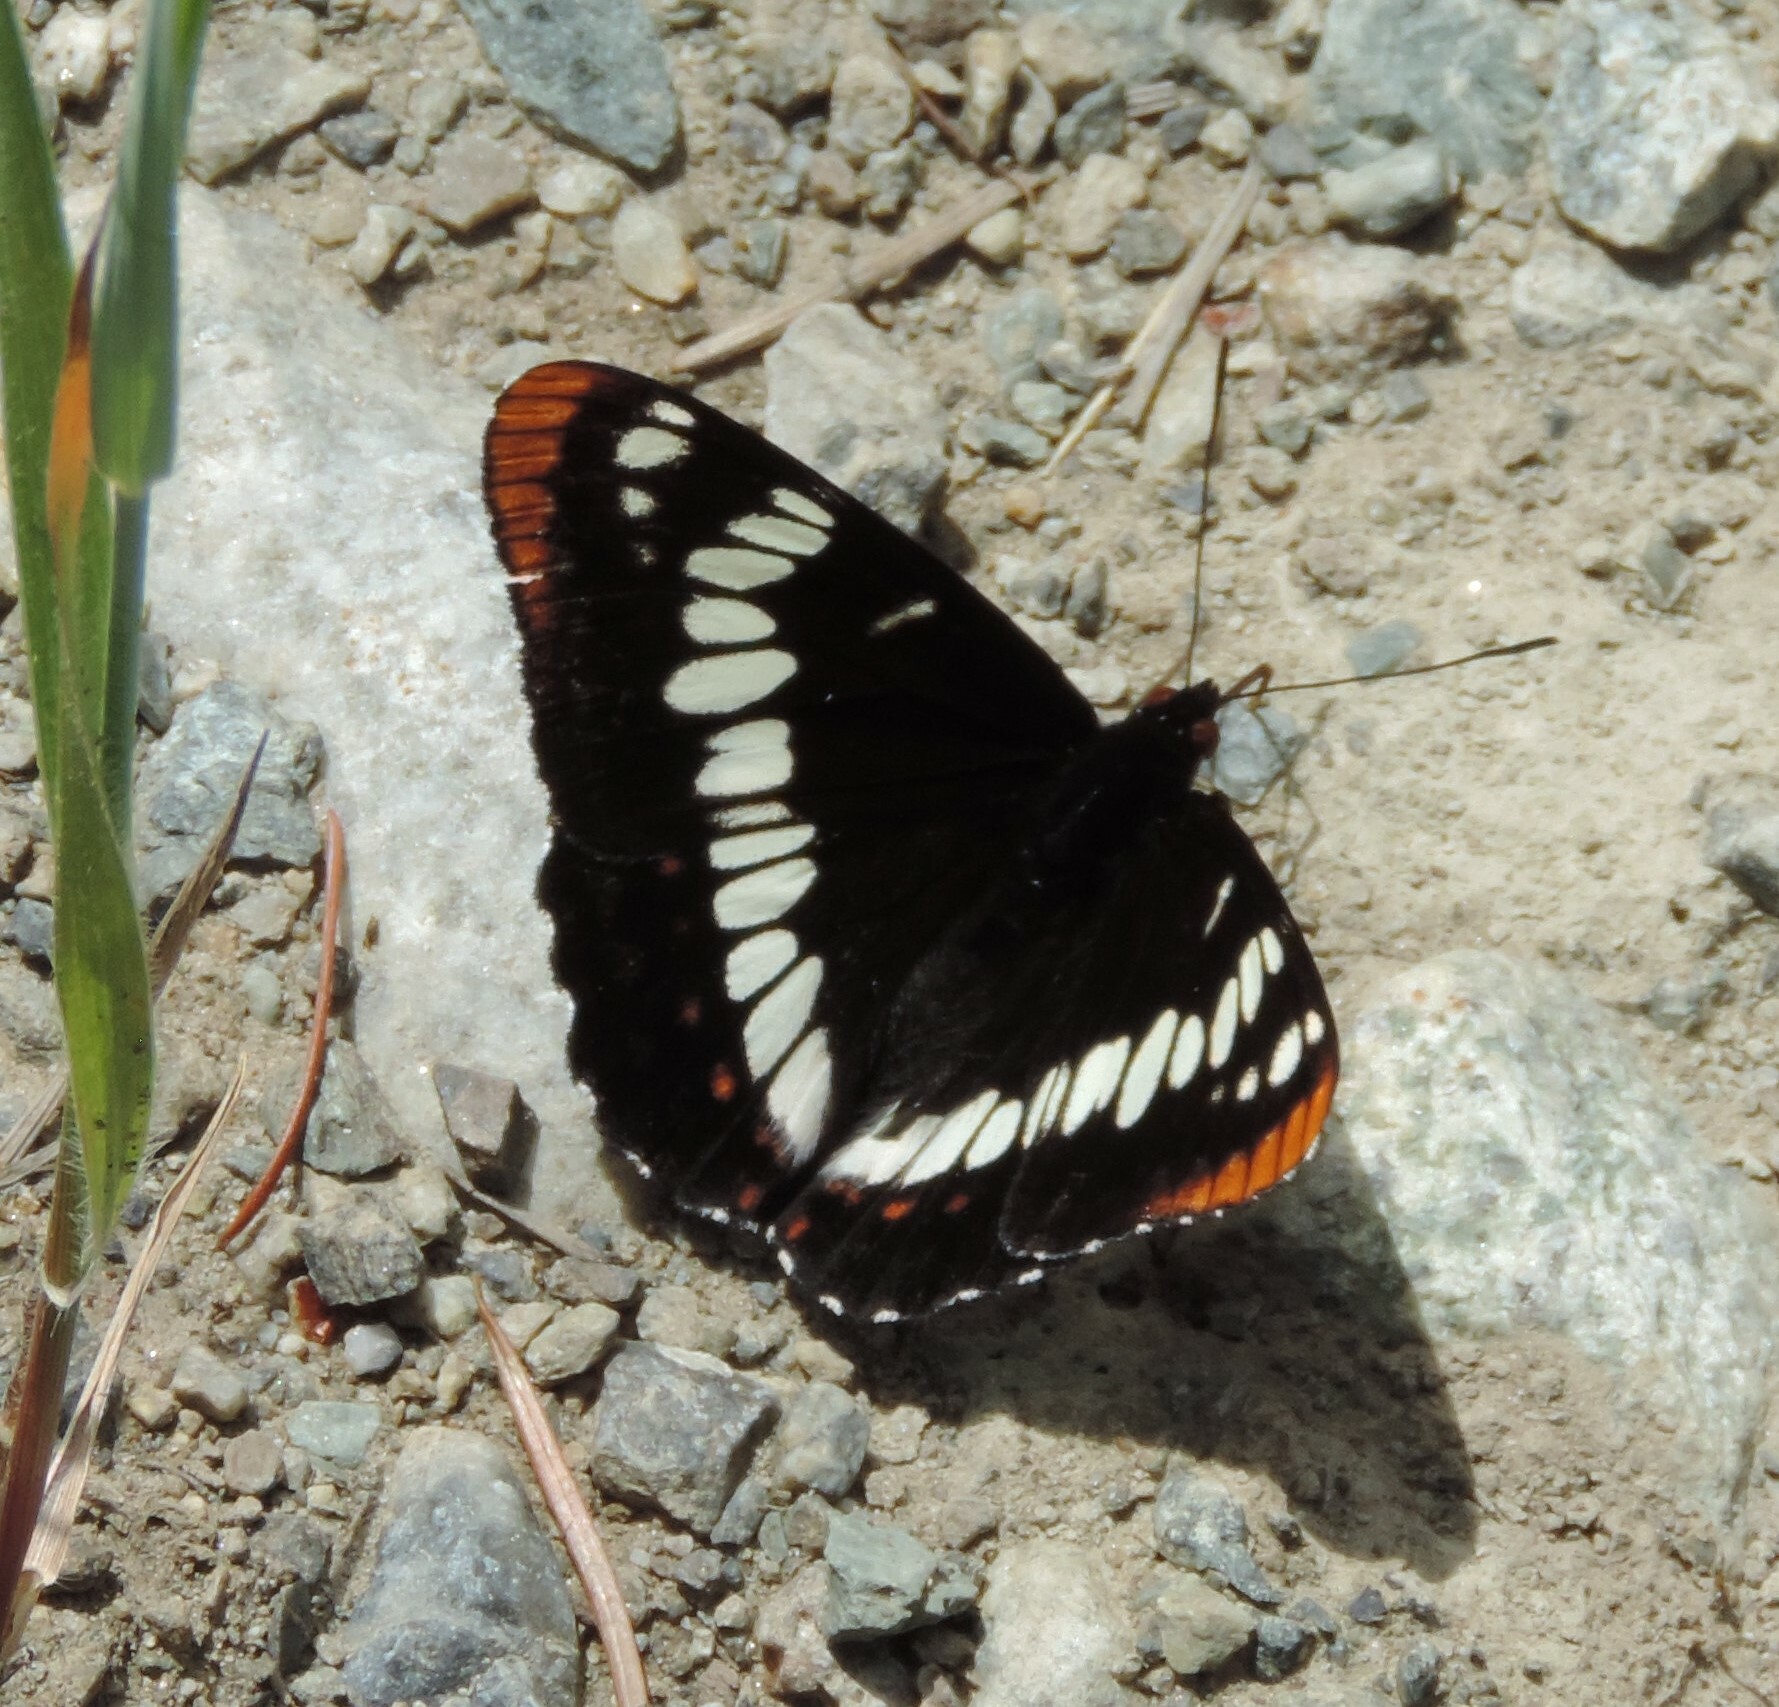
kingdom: Animalia
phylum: Arthropoda
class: Insecta
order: Lepidoptera
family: Nymphalidae
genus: Limenitis
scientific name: Limenitis lorquini
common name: Lorquin's admiral
